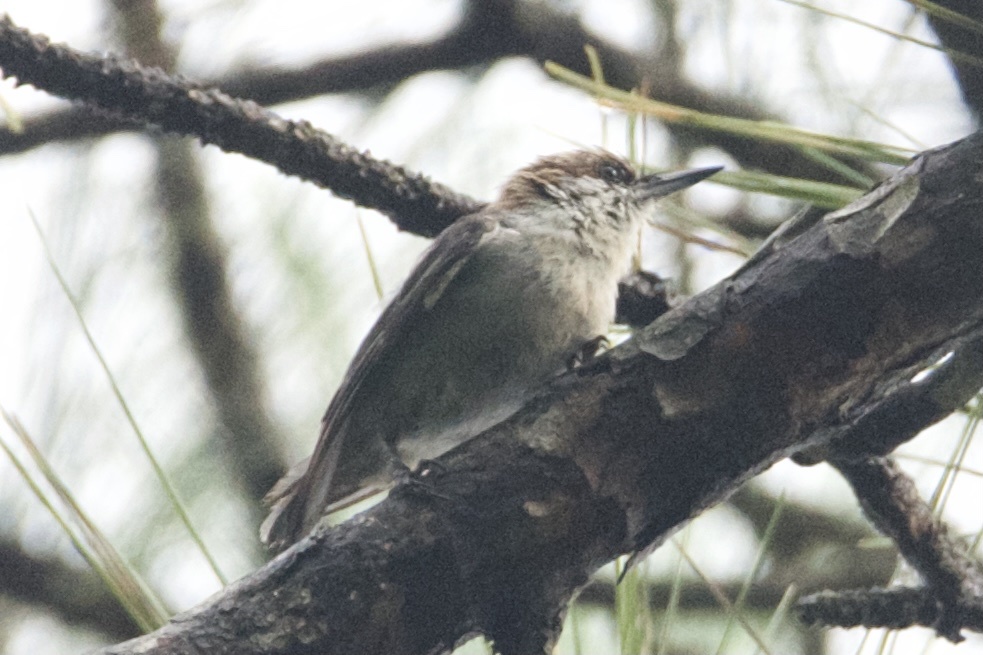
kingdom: Animalia
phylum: Chordata
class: Aves
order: Passeriformes
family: Sittidae
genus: Sitta
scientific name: Sitta pusilla
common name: Brown-headed nuthatch
